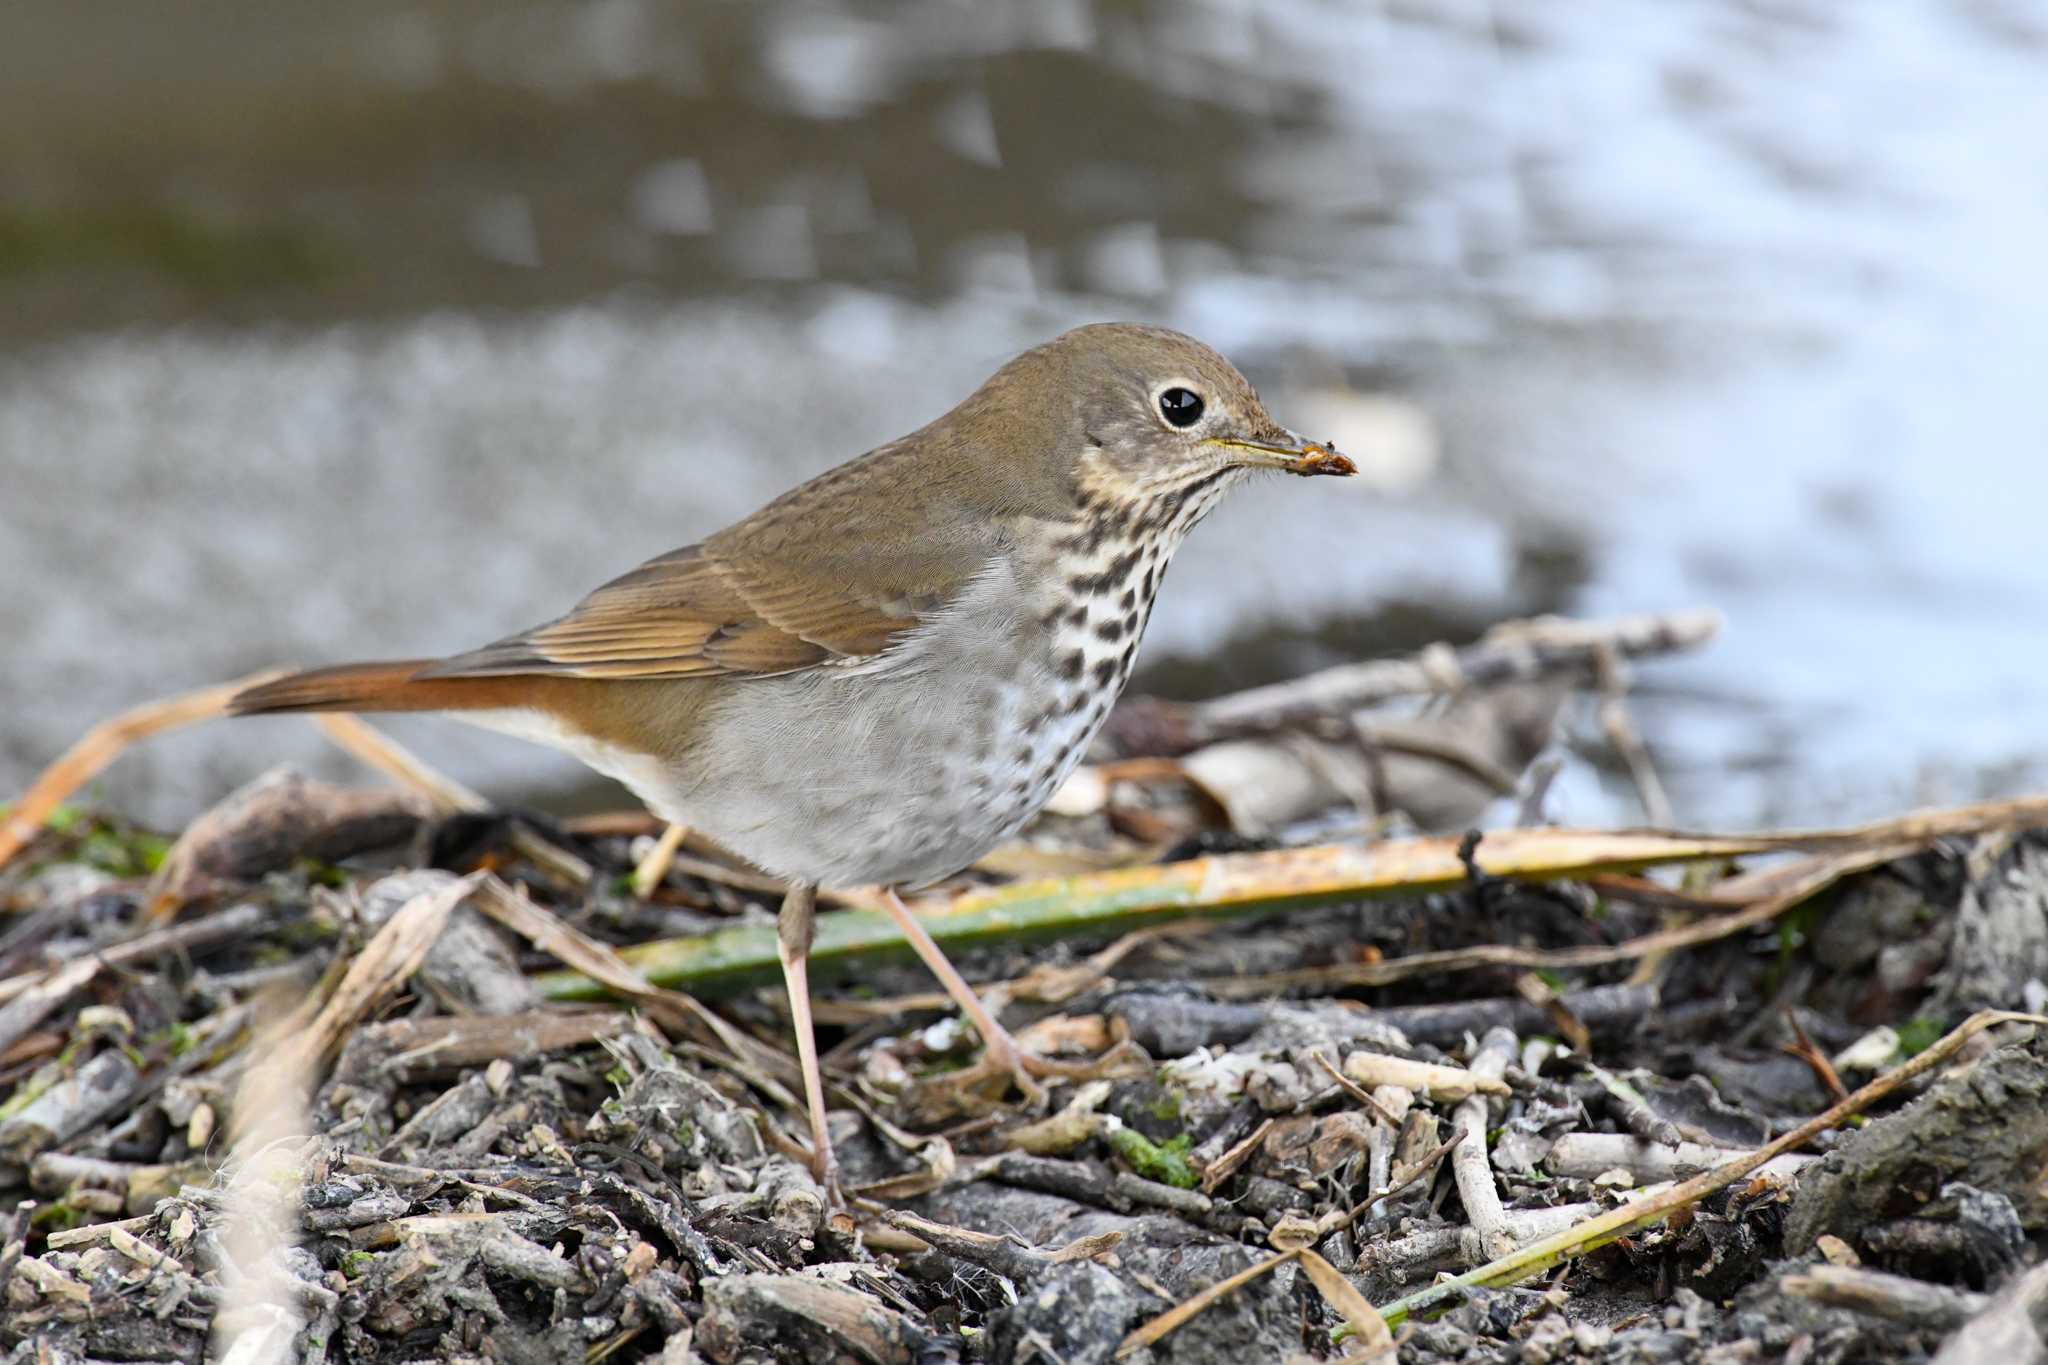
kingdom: Animalia
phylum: Chordata
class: Aves
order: Passeriformes
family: Turdidae
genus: Catharus
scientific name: Catharus guttatus
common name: Hermit thrush
